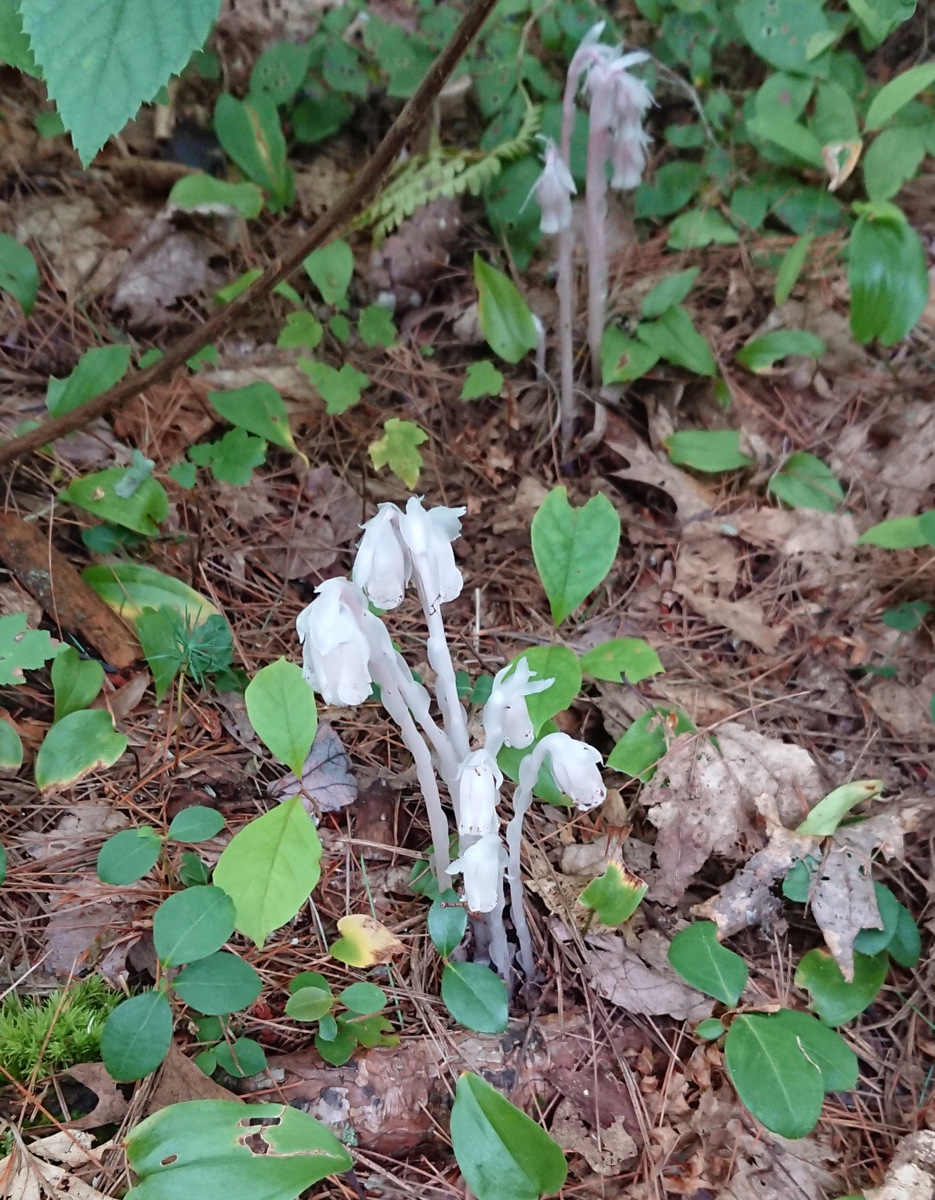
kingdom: Plantae
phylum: Tracheophyta
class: Magnoliopsida
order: Ericales
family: Ericaceae
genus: Monotropa
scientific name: Monotropa uniflora
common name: Convulsion root
